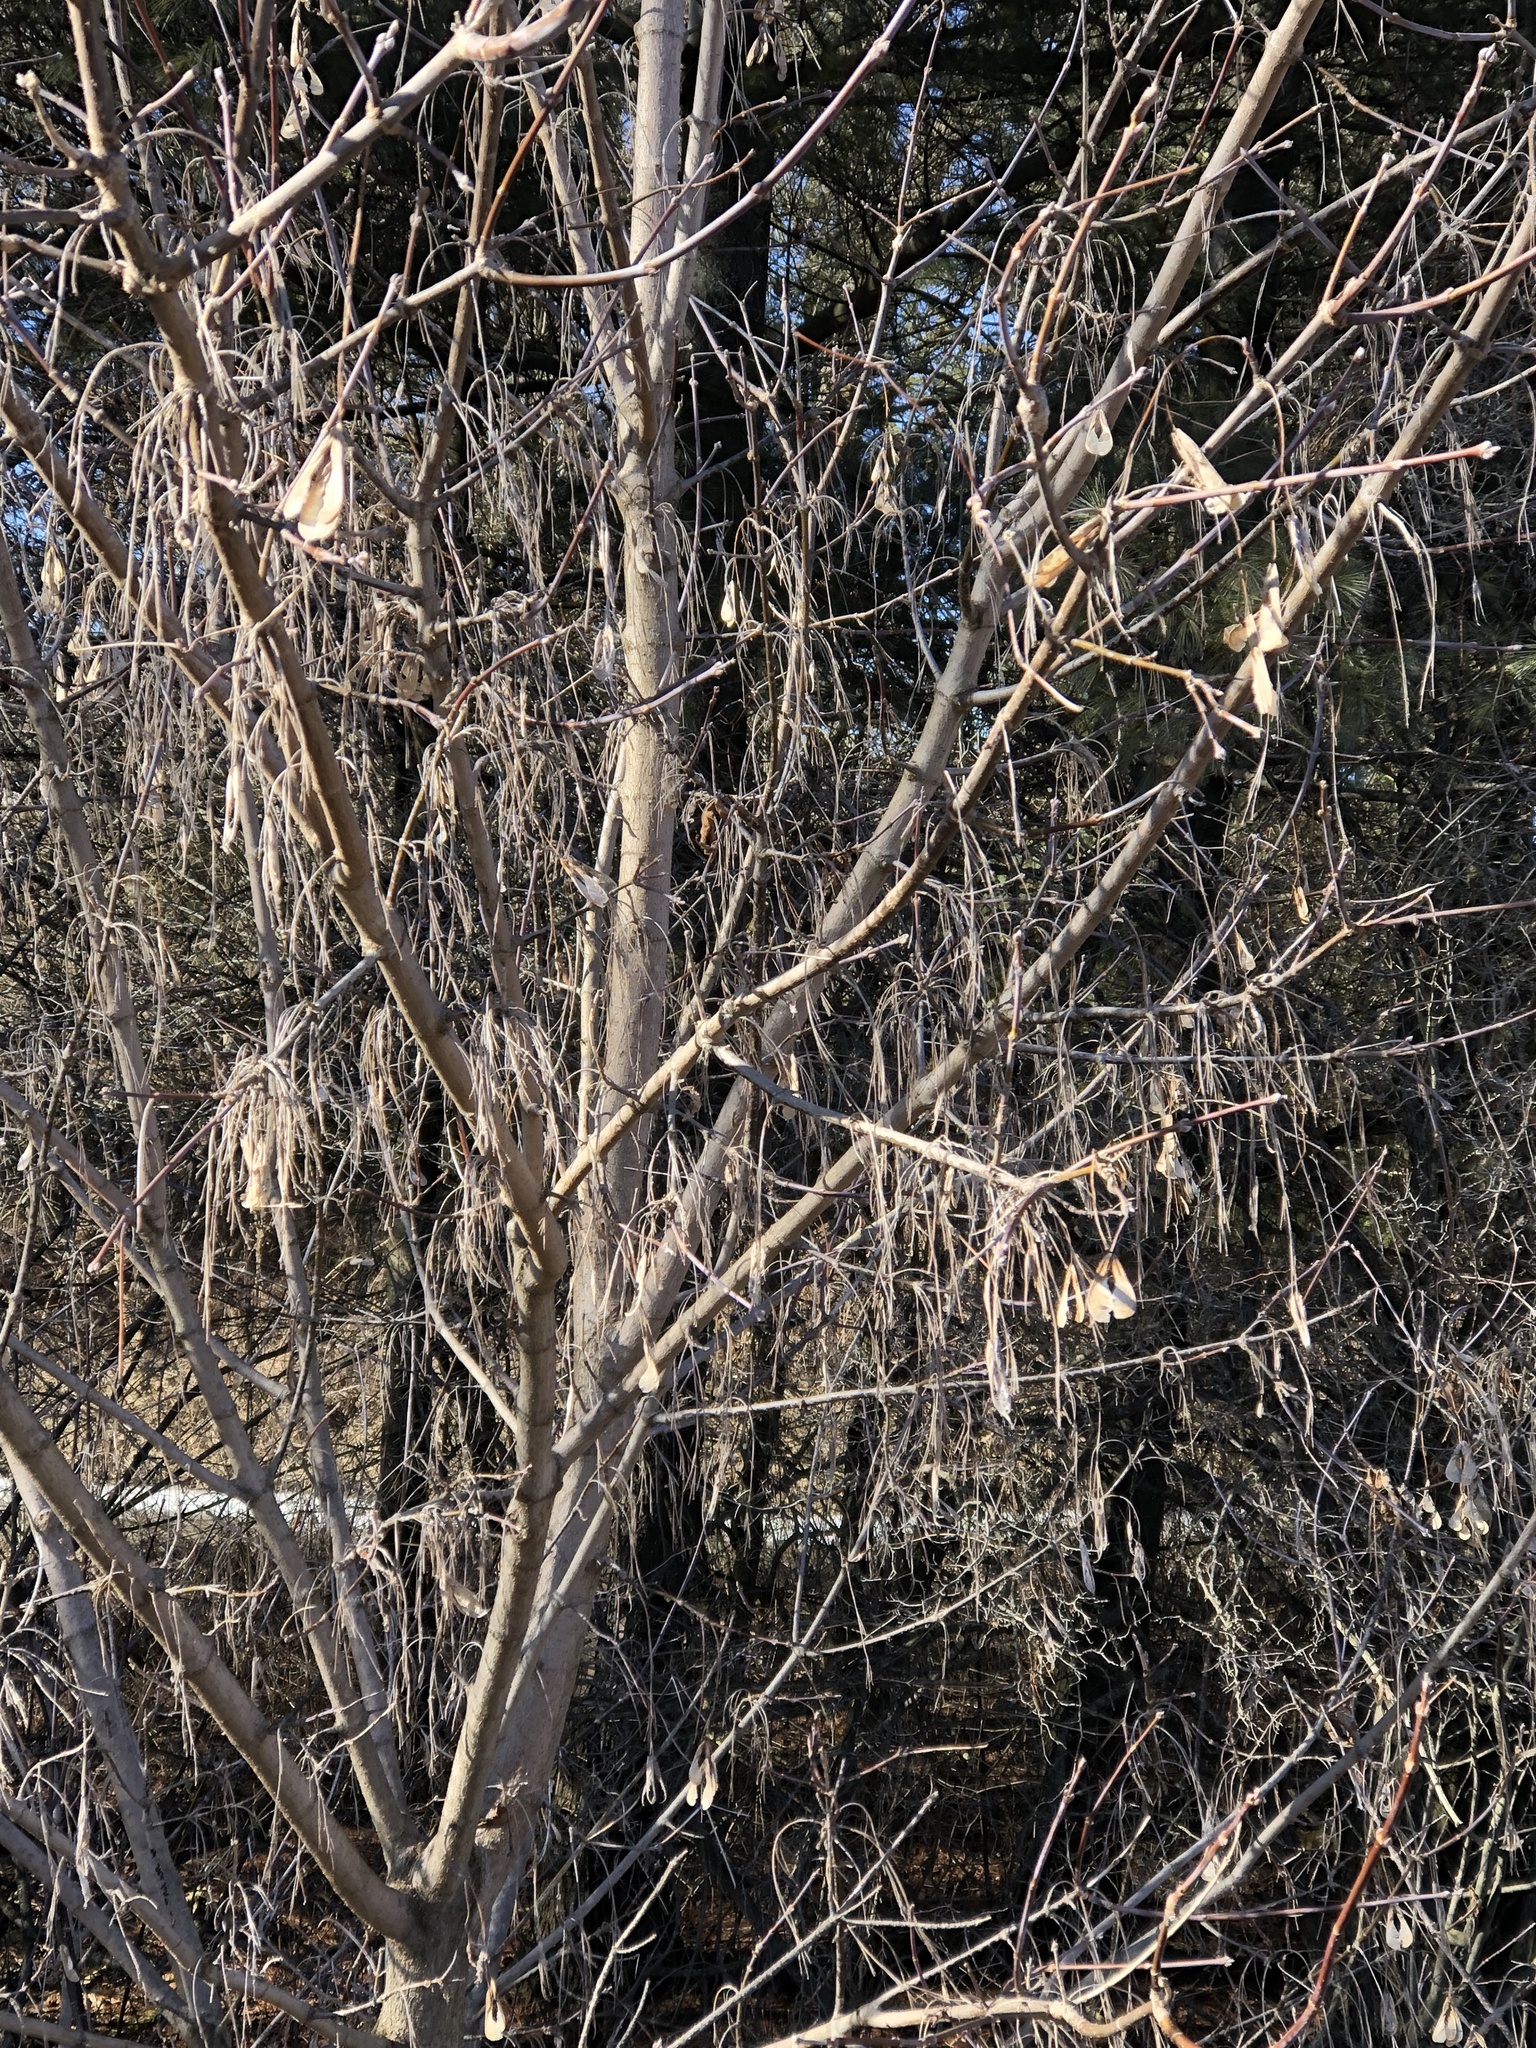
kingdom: Plantae
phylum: Tracheophyta
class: Magnoliopsida
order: Sapindales
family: Sapindaceae
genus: Acer
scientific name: Acer negundo
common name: Ashleaf maple
